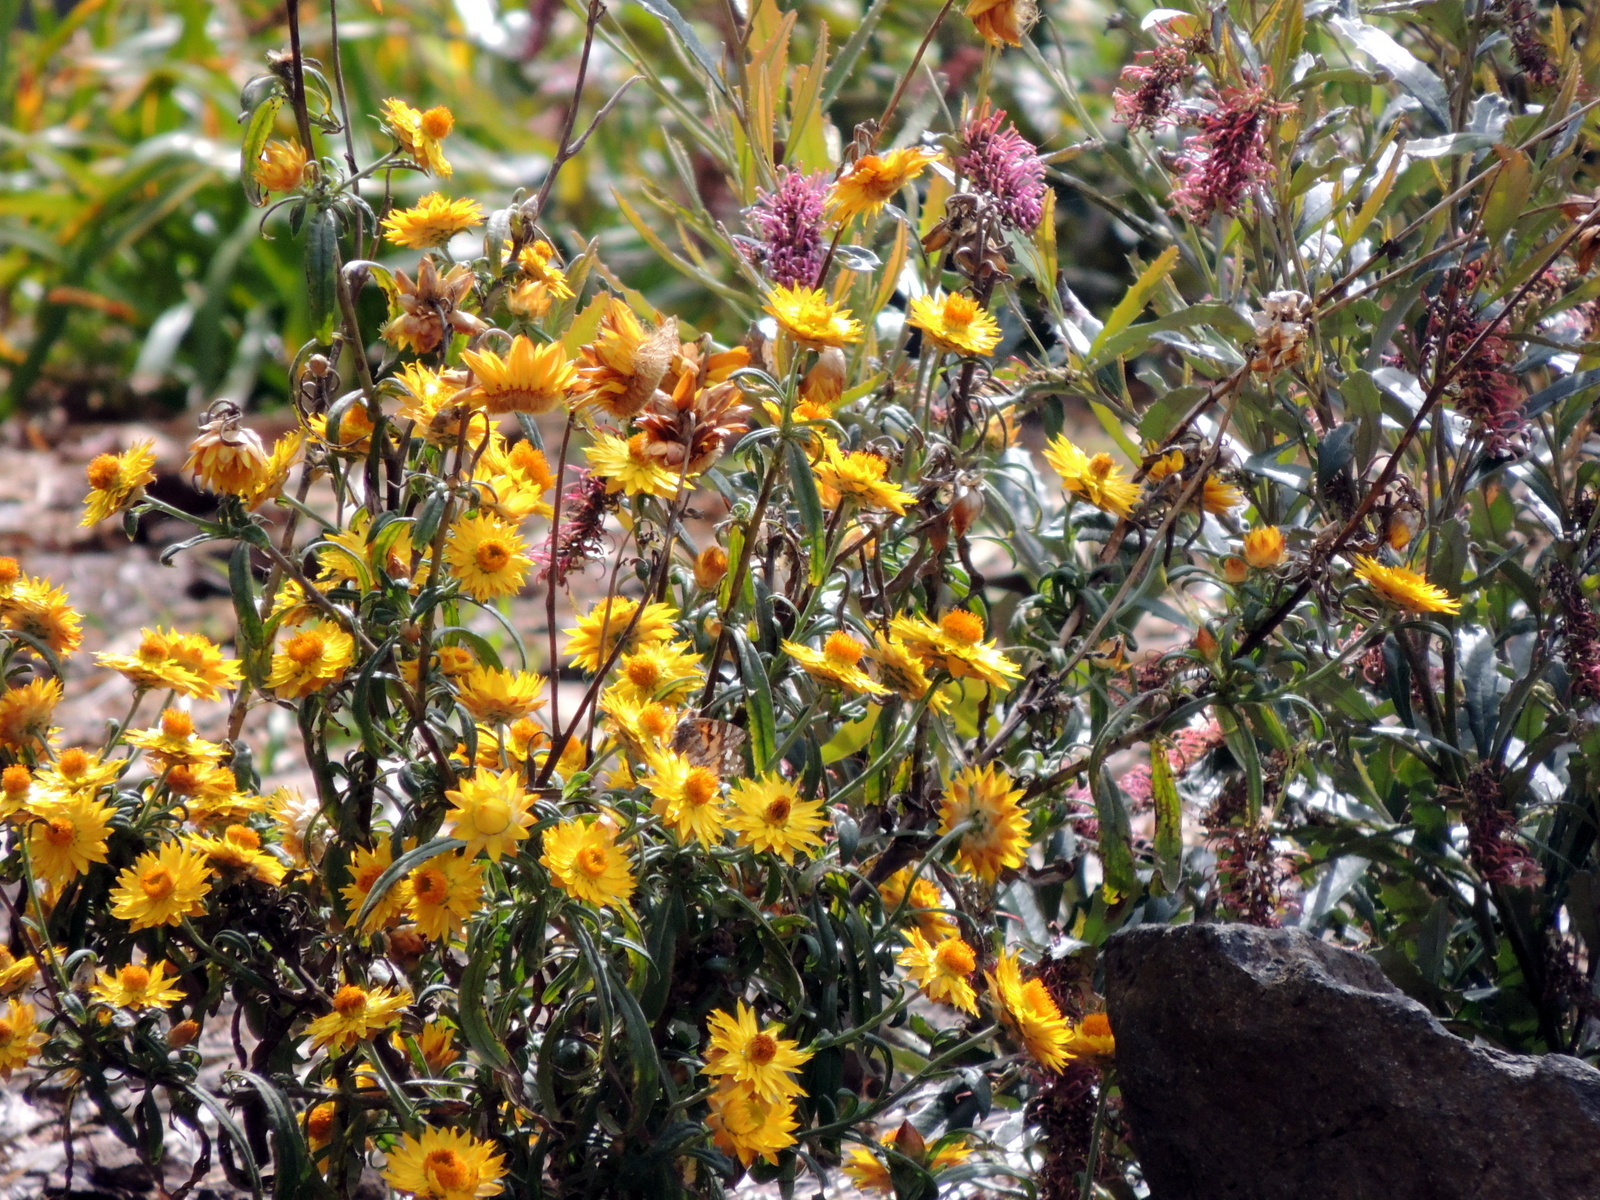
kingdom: Animalia
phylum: Arthropoda
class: Insecta
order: Lepidoptera
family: Nymphalidae
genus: Vanessa
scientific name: Vanessa kershawi
